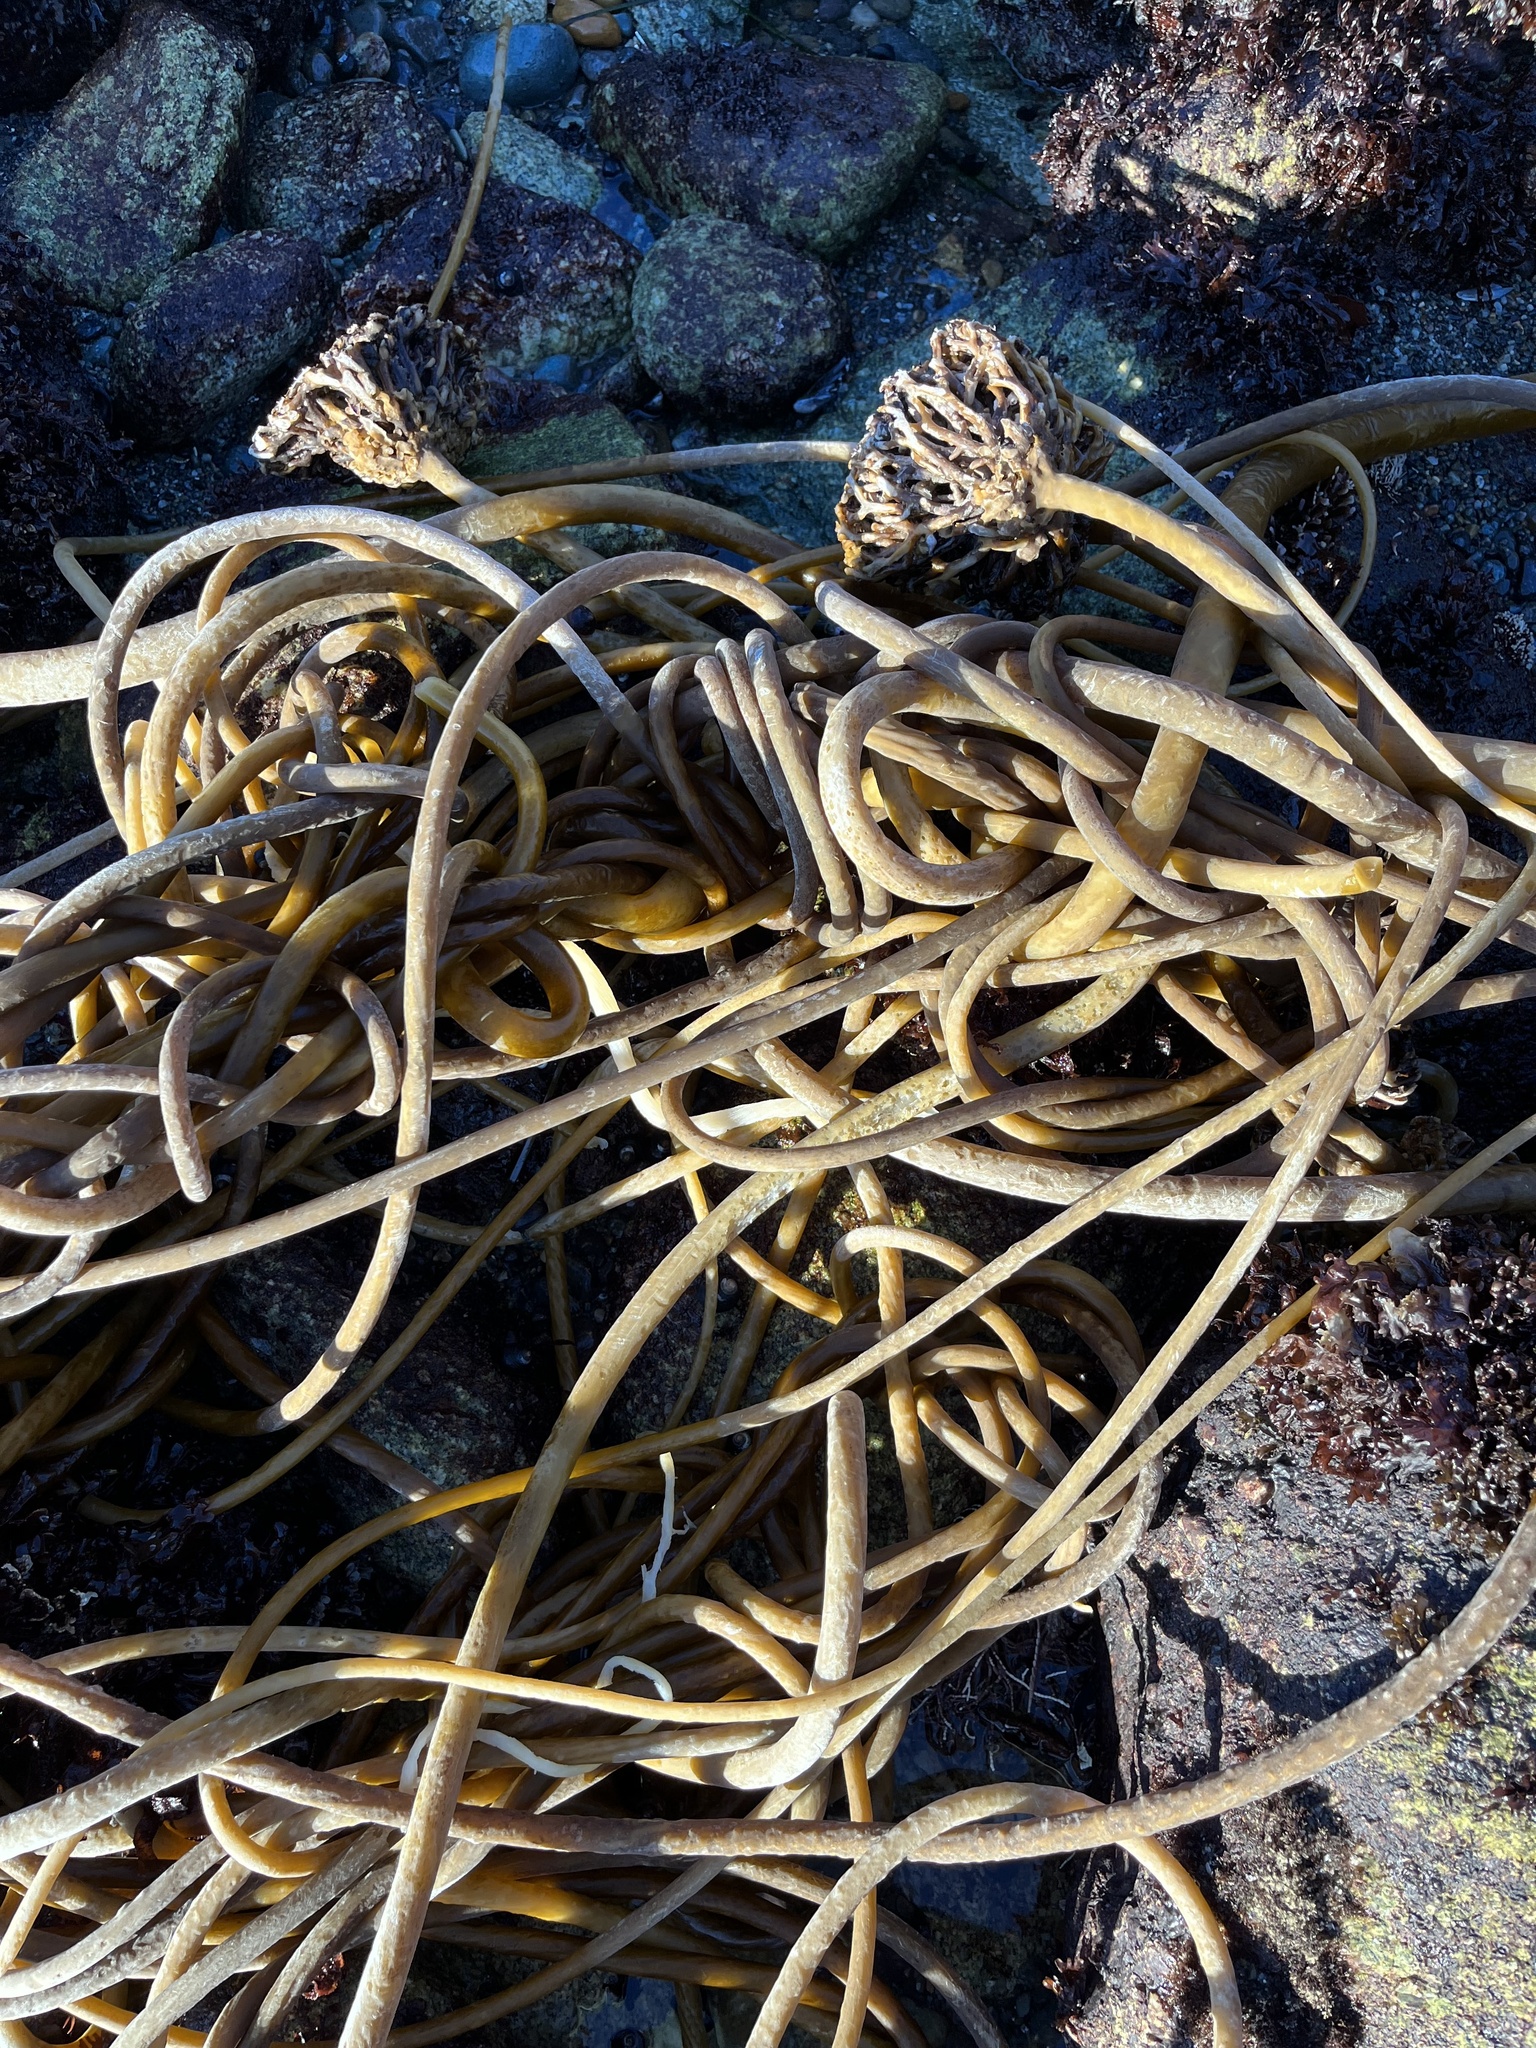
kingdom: Chromista
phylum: Ochrophyta
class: Phaeophyceae
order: Laminariales
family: Laminariaceae
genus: Nereocystis
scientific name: Nereocystis luetkeana
